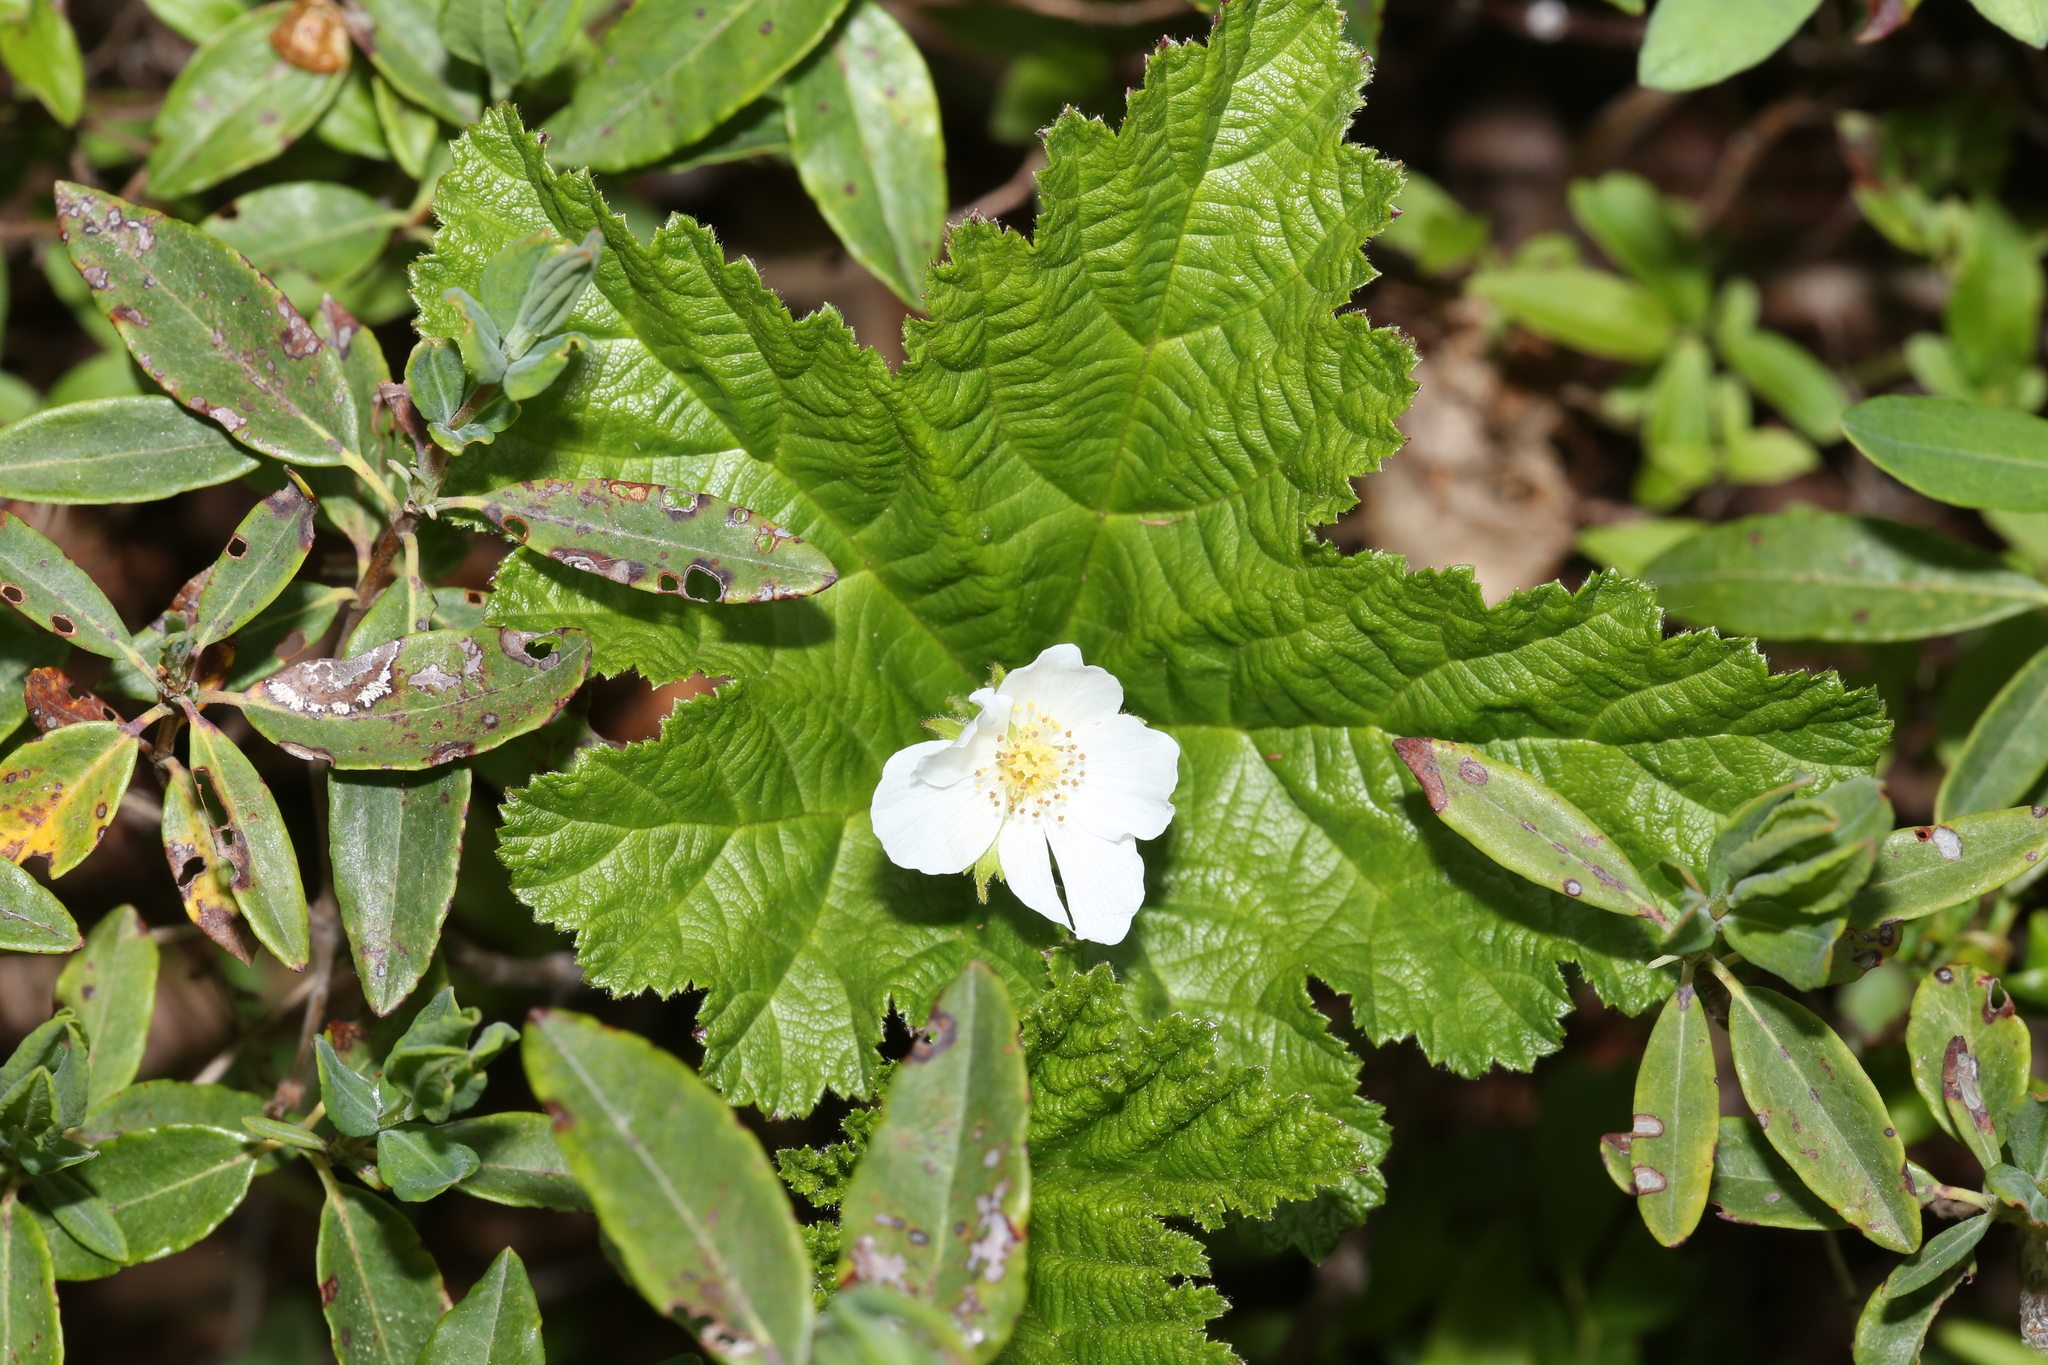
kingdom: Plantae
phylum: Tracheophyta
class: Magnoliopsida
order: Rosales
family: Rosaceae
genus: Rubus
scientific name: Rubus chamaemorus
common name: Cloudberry
